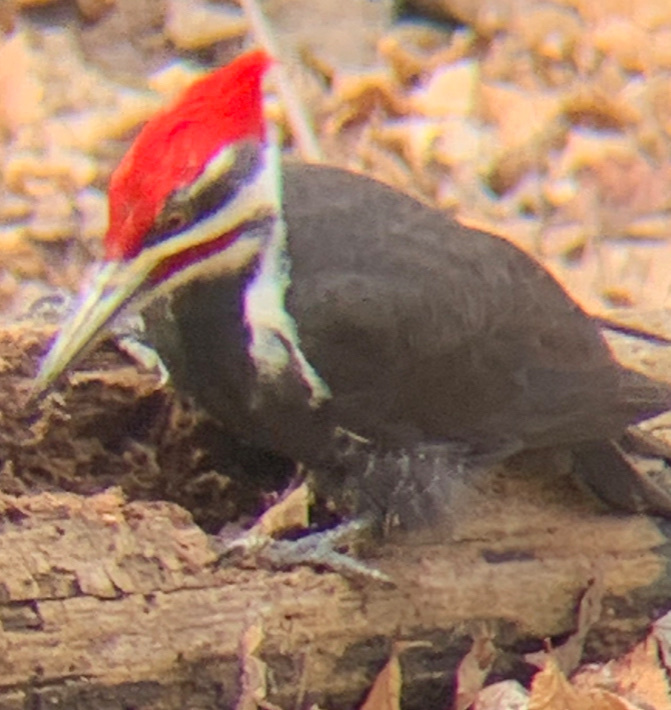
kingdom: Animalia
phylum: Chordata
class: Aves
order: Piciformes
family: Picidae
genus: Dryocopus
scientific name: Dryocopus pileatus
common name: Pileated woodpecker
